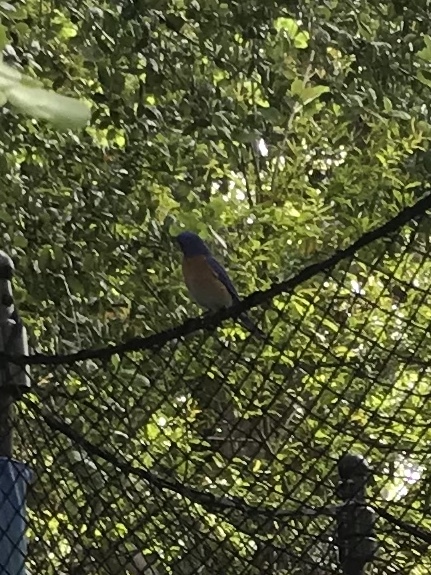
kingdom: Animalia
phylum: Chordata
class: Aves
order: Passeriformes
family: Turdidae
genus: Sialia
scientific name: Sialia mexicana
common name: Western bluebird
